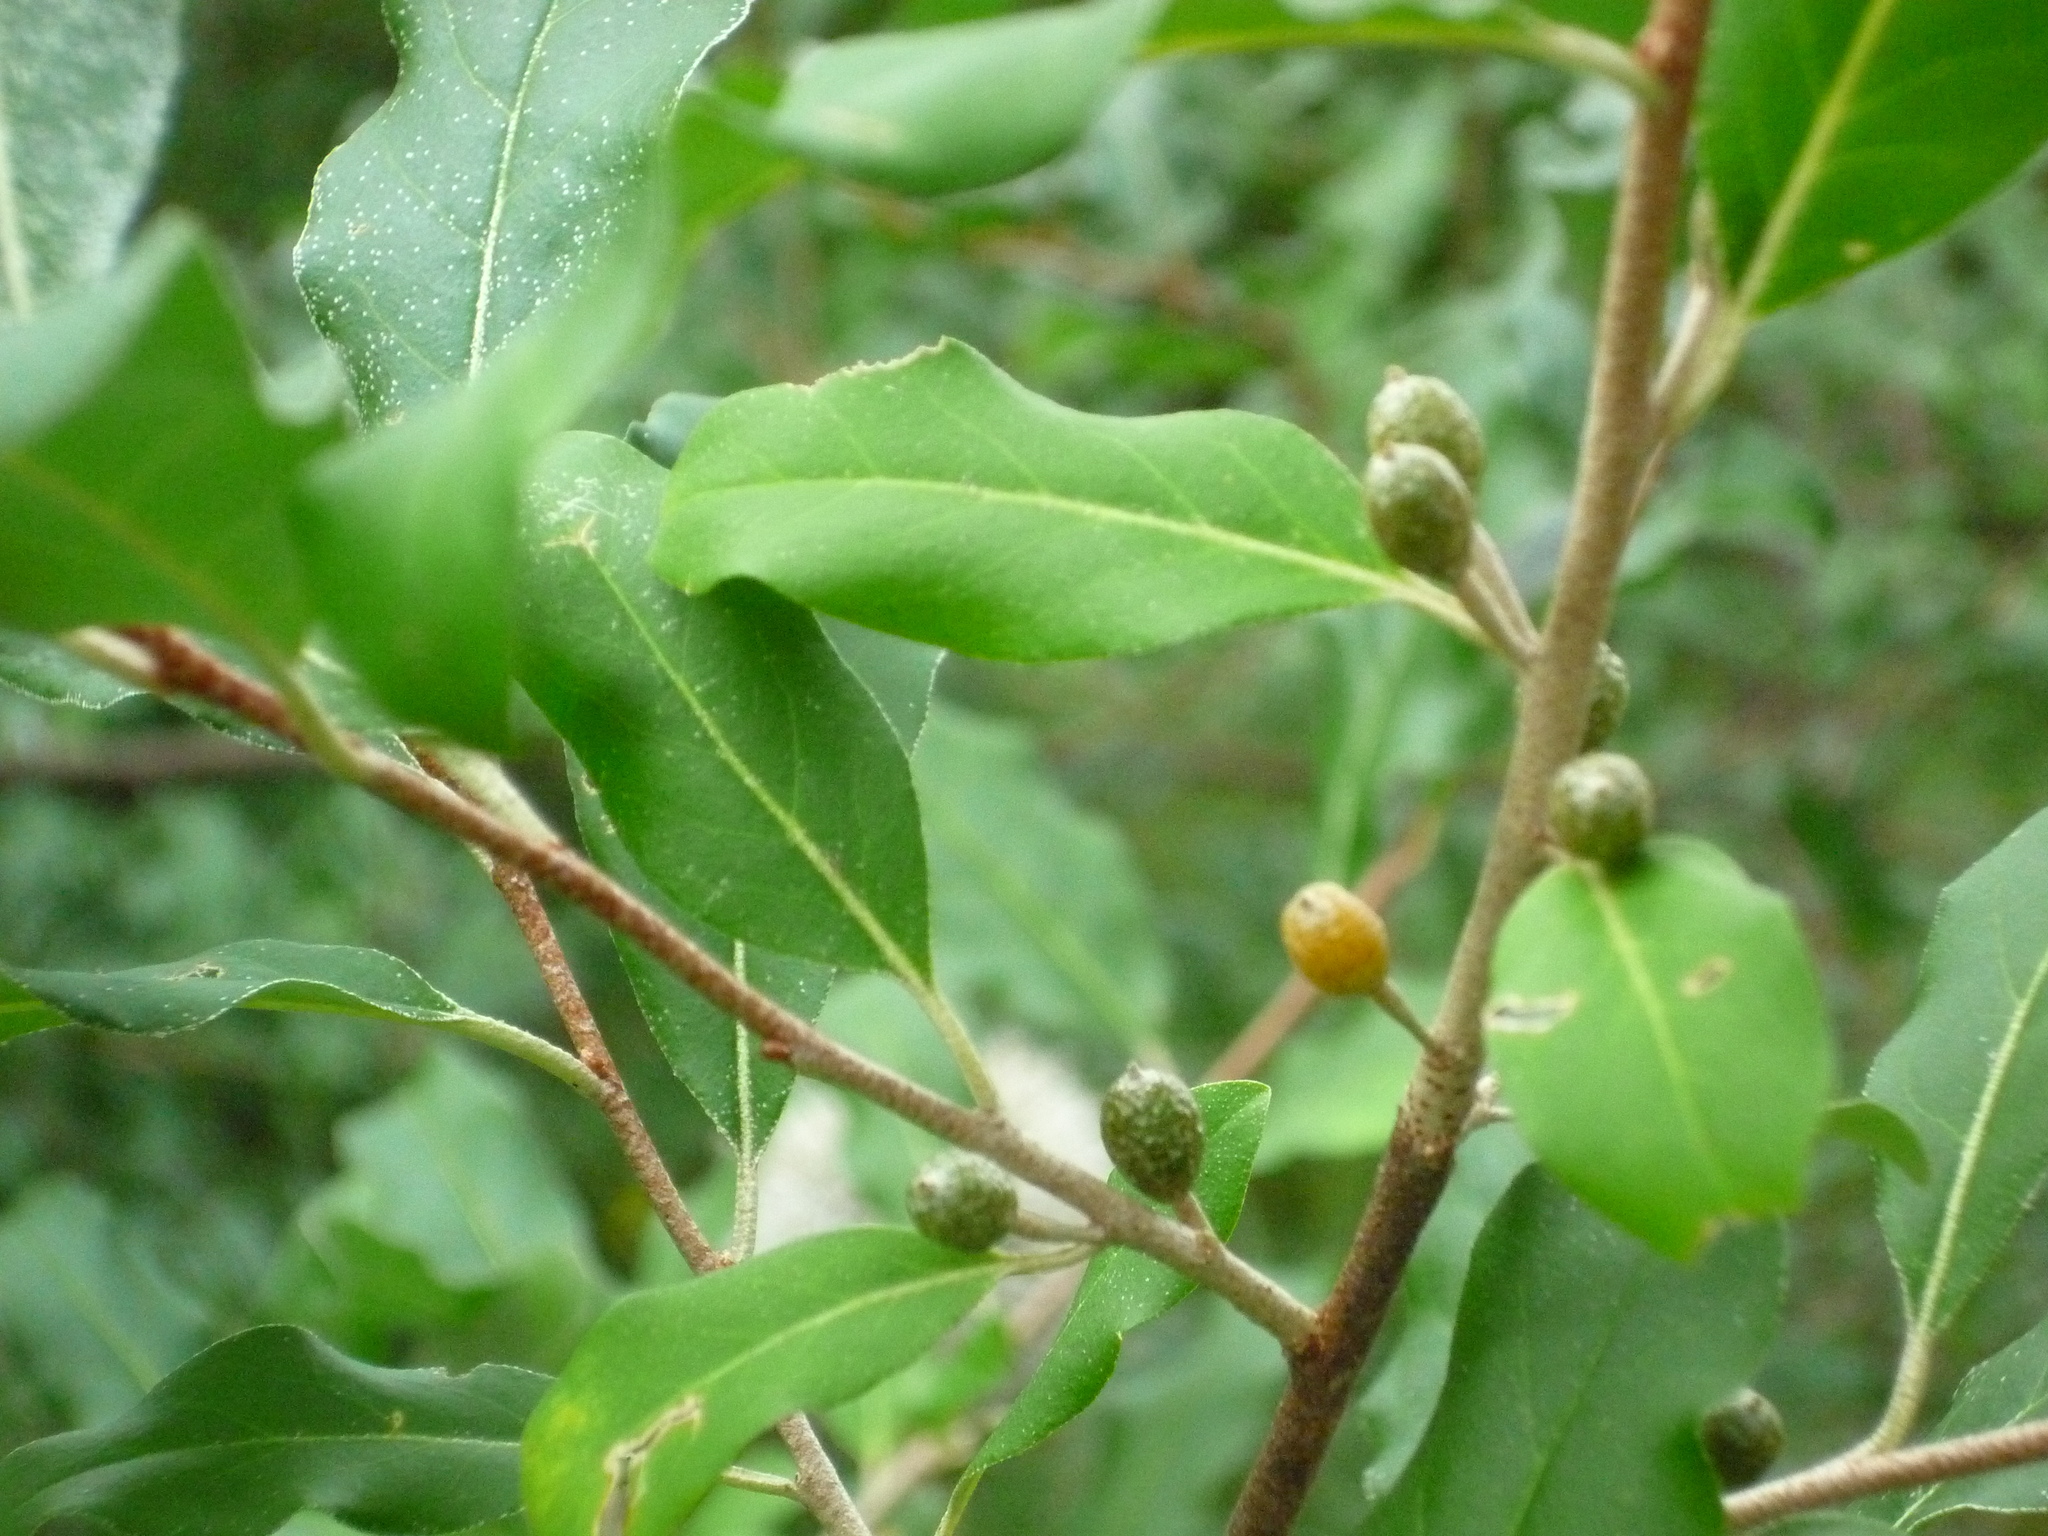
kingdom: Plantae
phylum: Tracheophyta
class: Magnoliopsida
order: Rosales
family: Elaeagnaceae
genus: Elaeagnus
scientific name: Elaeagnus umbellata
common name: Autumn olive
